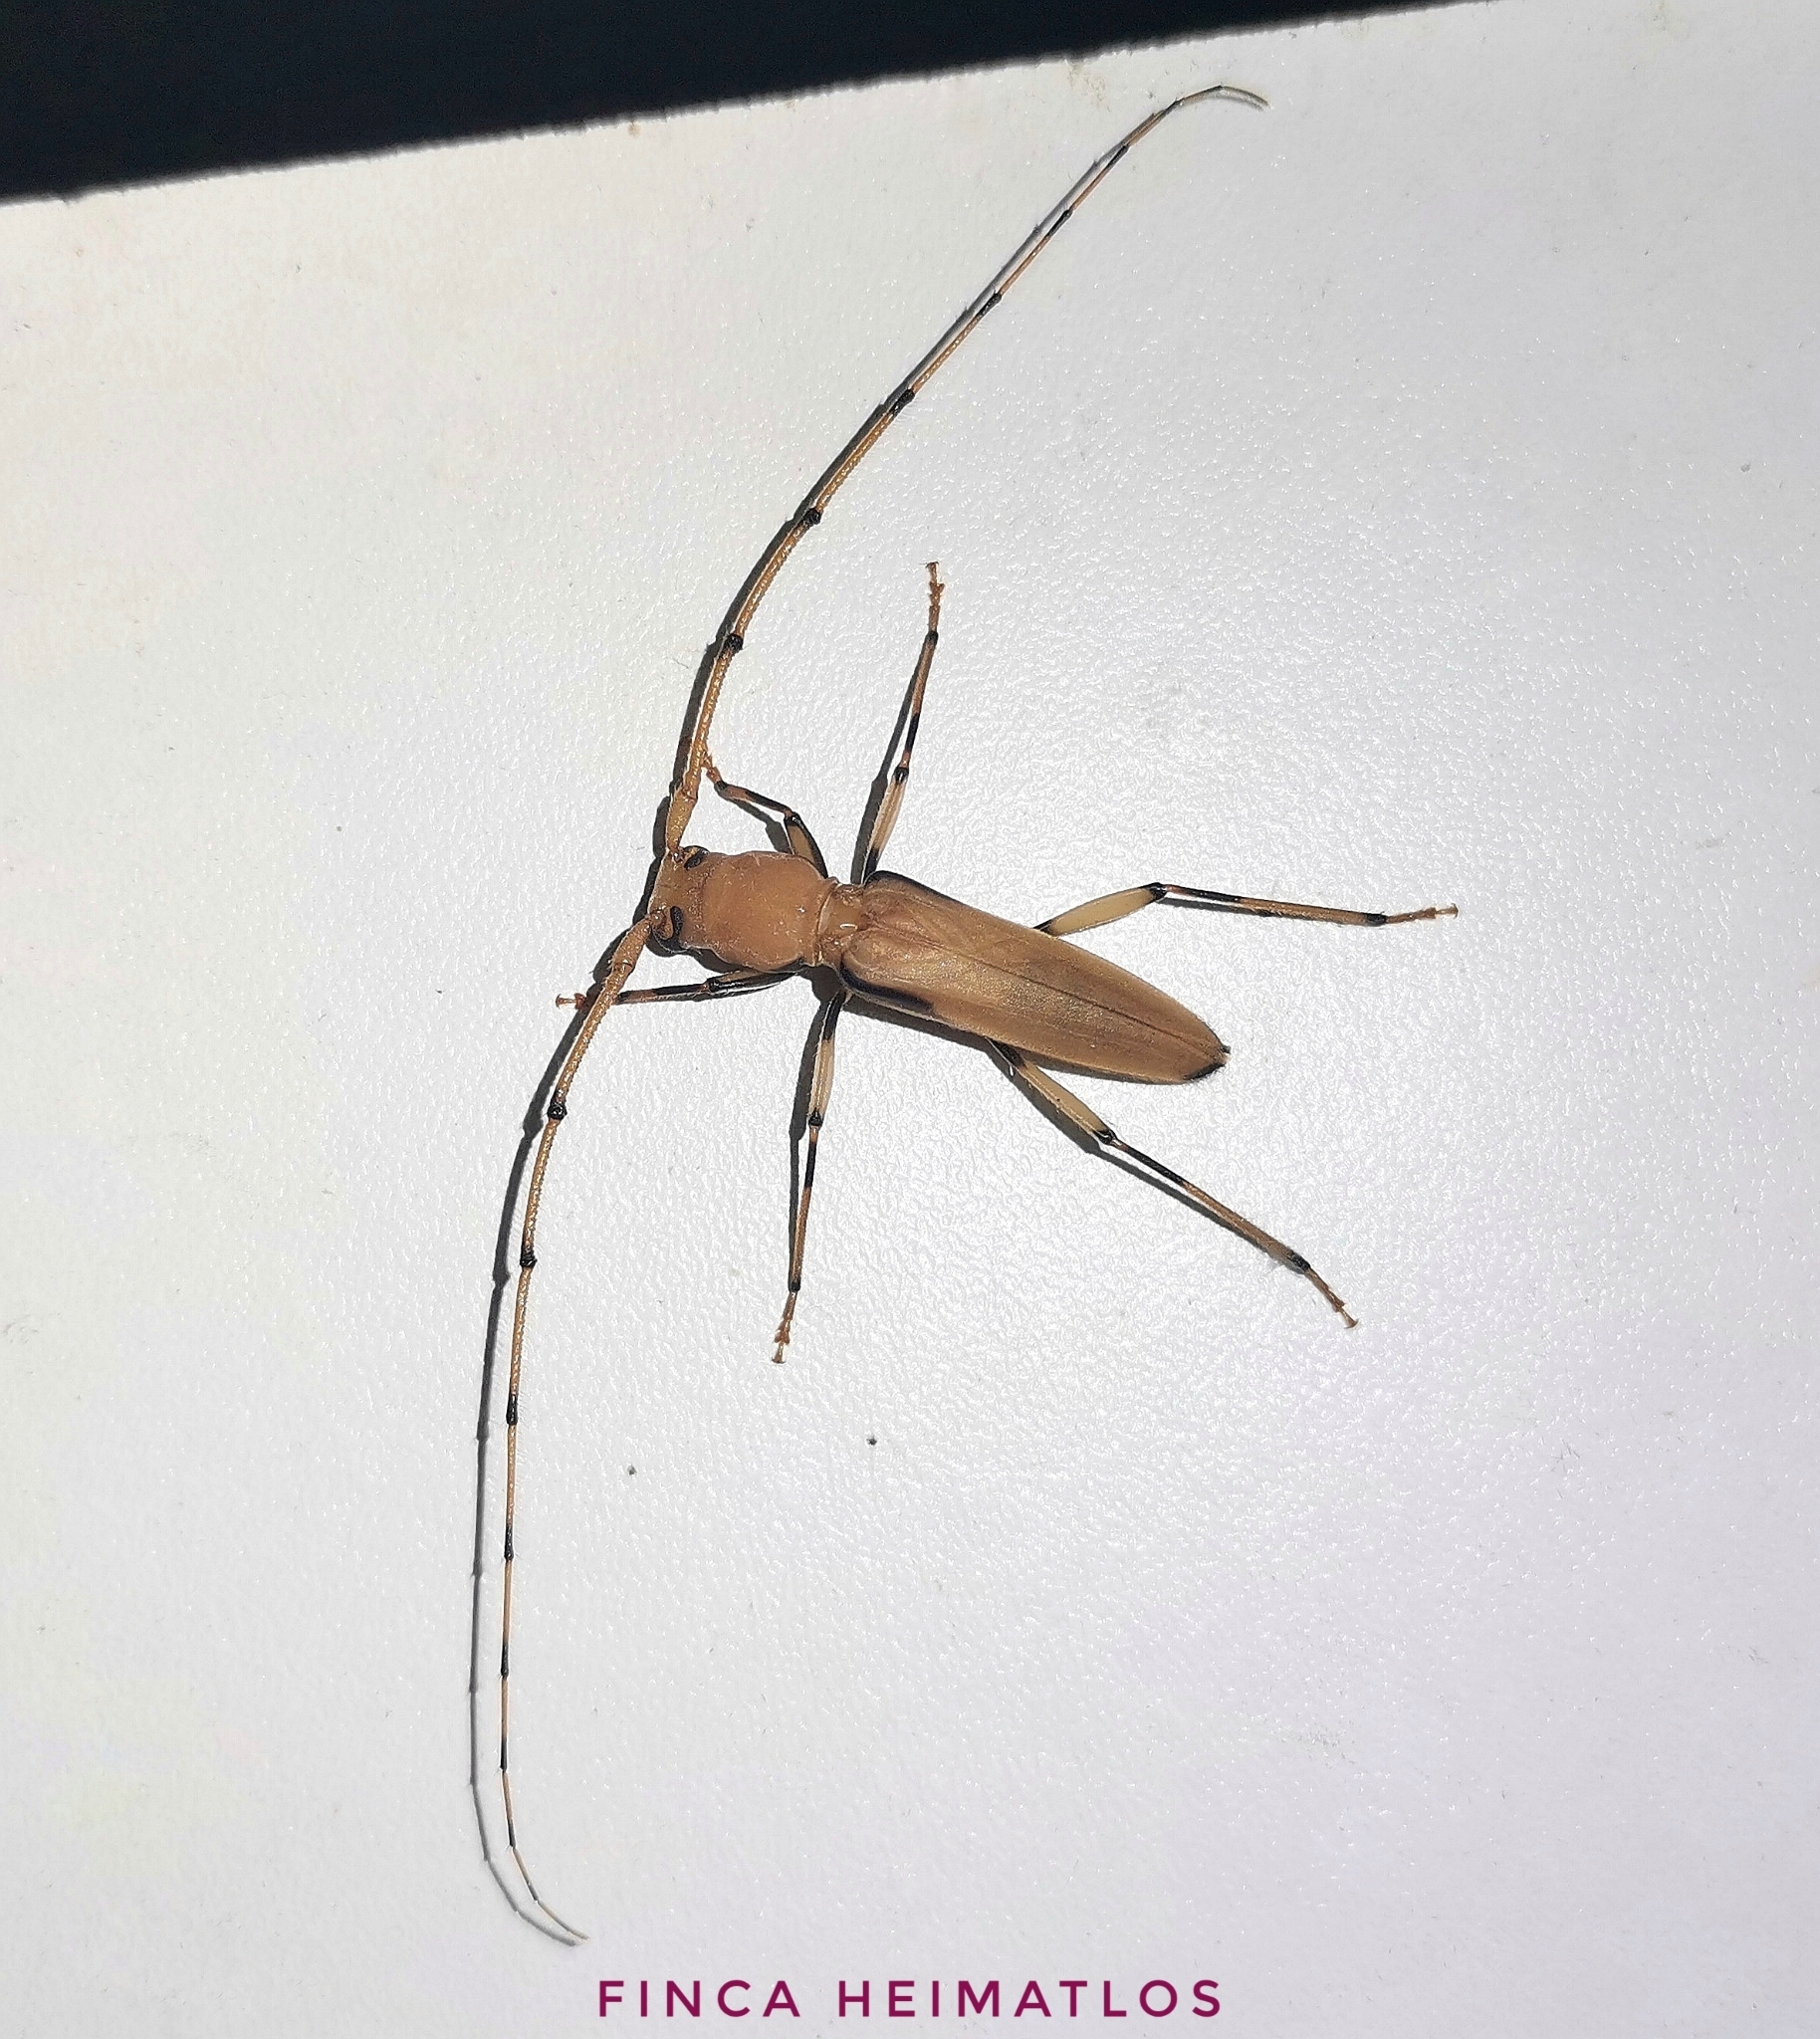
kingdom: Animalia
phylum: Arthropoda
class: Insecta
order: Coleoptera
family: Cerambycidae
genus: Neoeme
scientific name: Neoeme opaca
